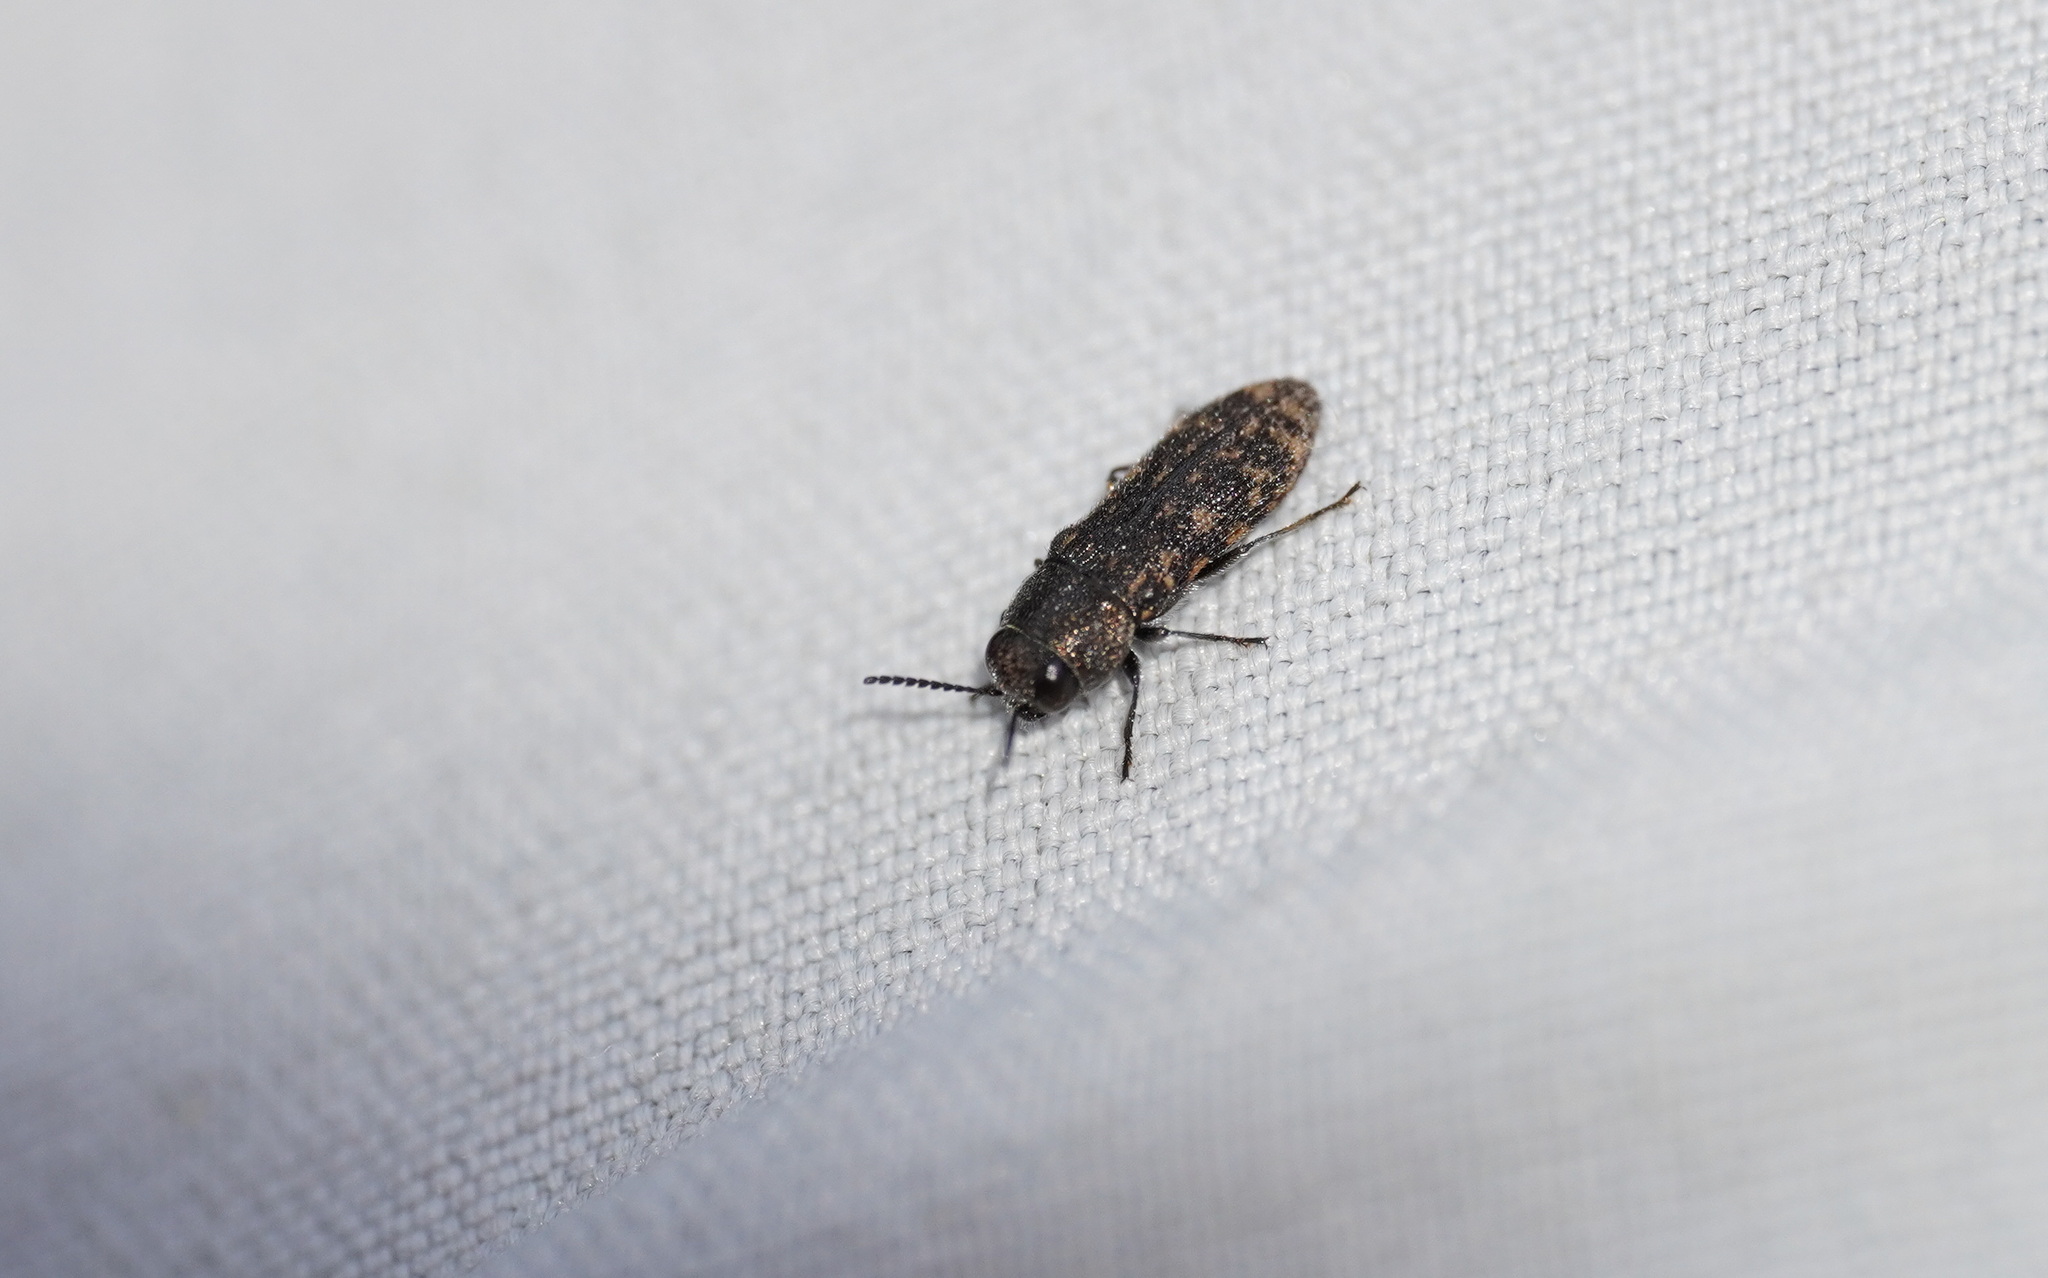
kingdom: Animalia
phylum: Arthropoda
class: Insecta
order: Coleoptera
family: Buprestidae
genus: Acmaeodera
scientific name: Acmaeodera cisti
